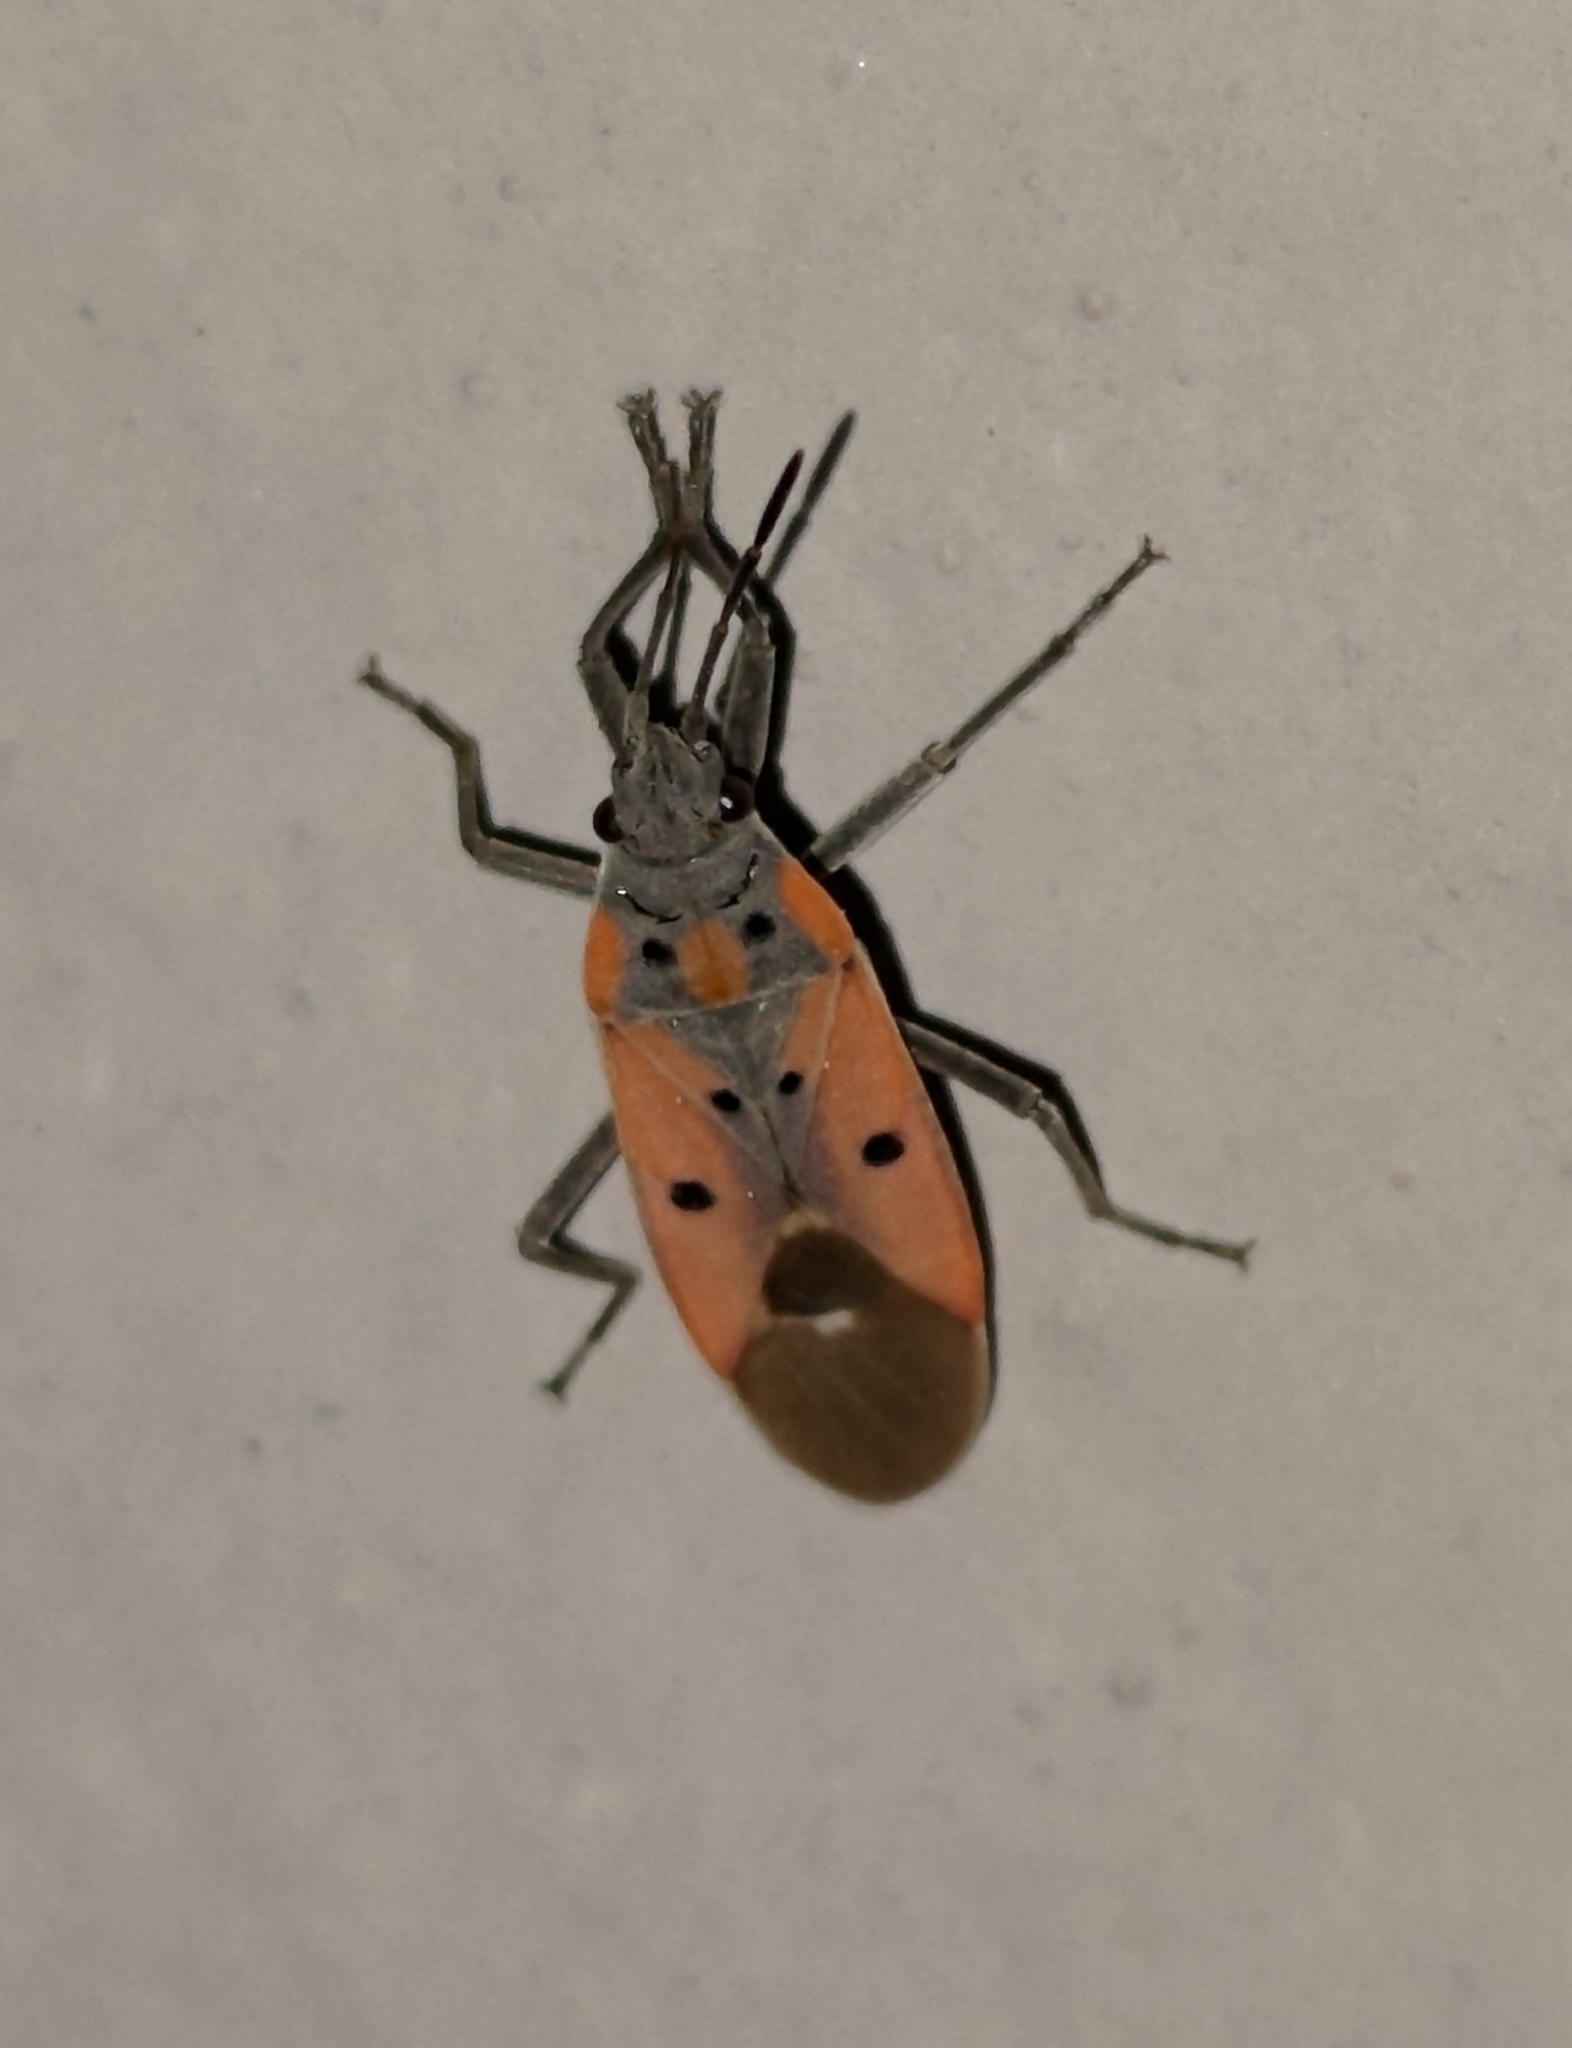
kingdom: Animalia
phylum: Arthropoda
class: Insecta
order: Hemiptera
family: Lygaeidae
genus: Lygaeus
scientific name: Lygaeus creticus
